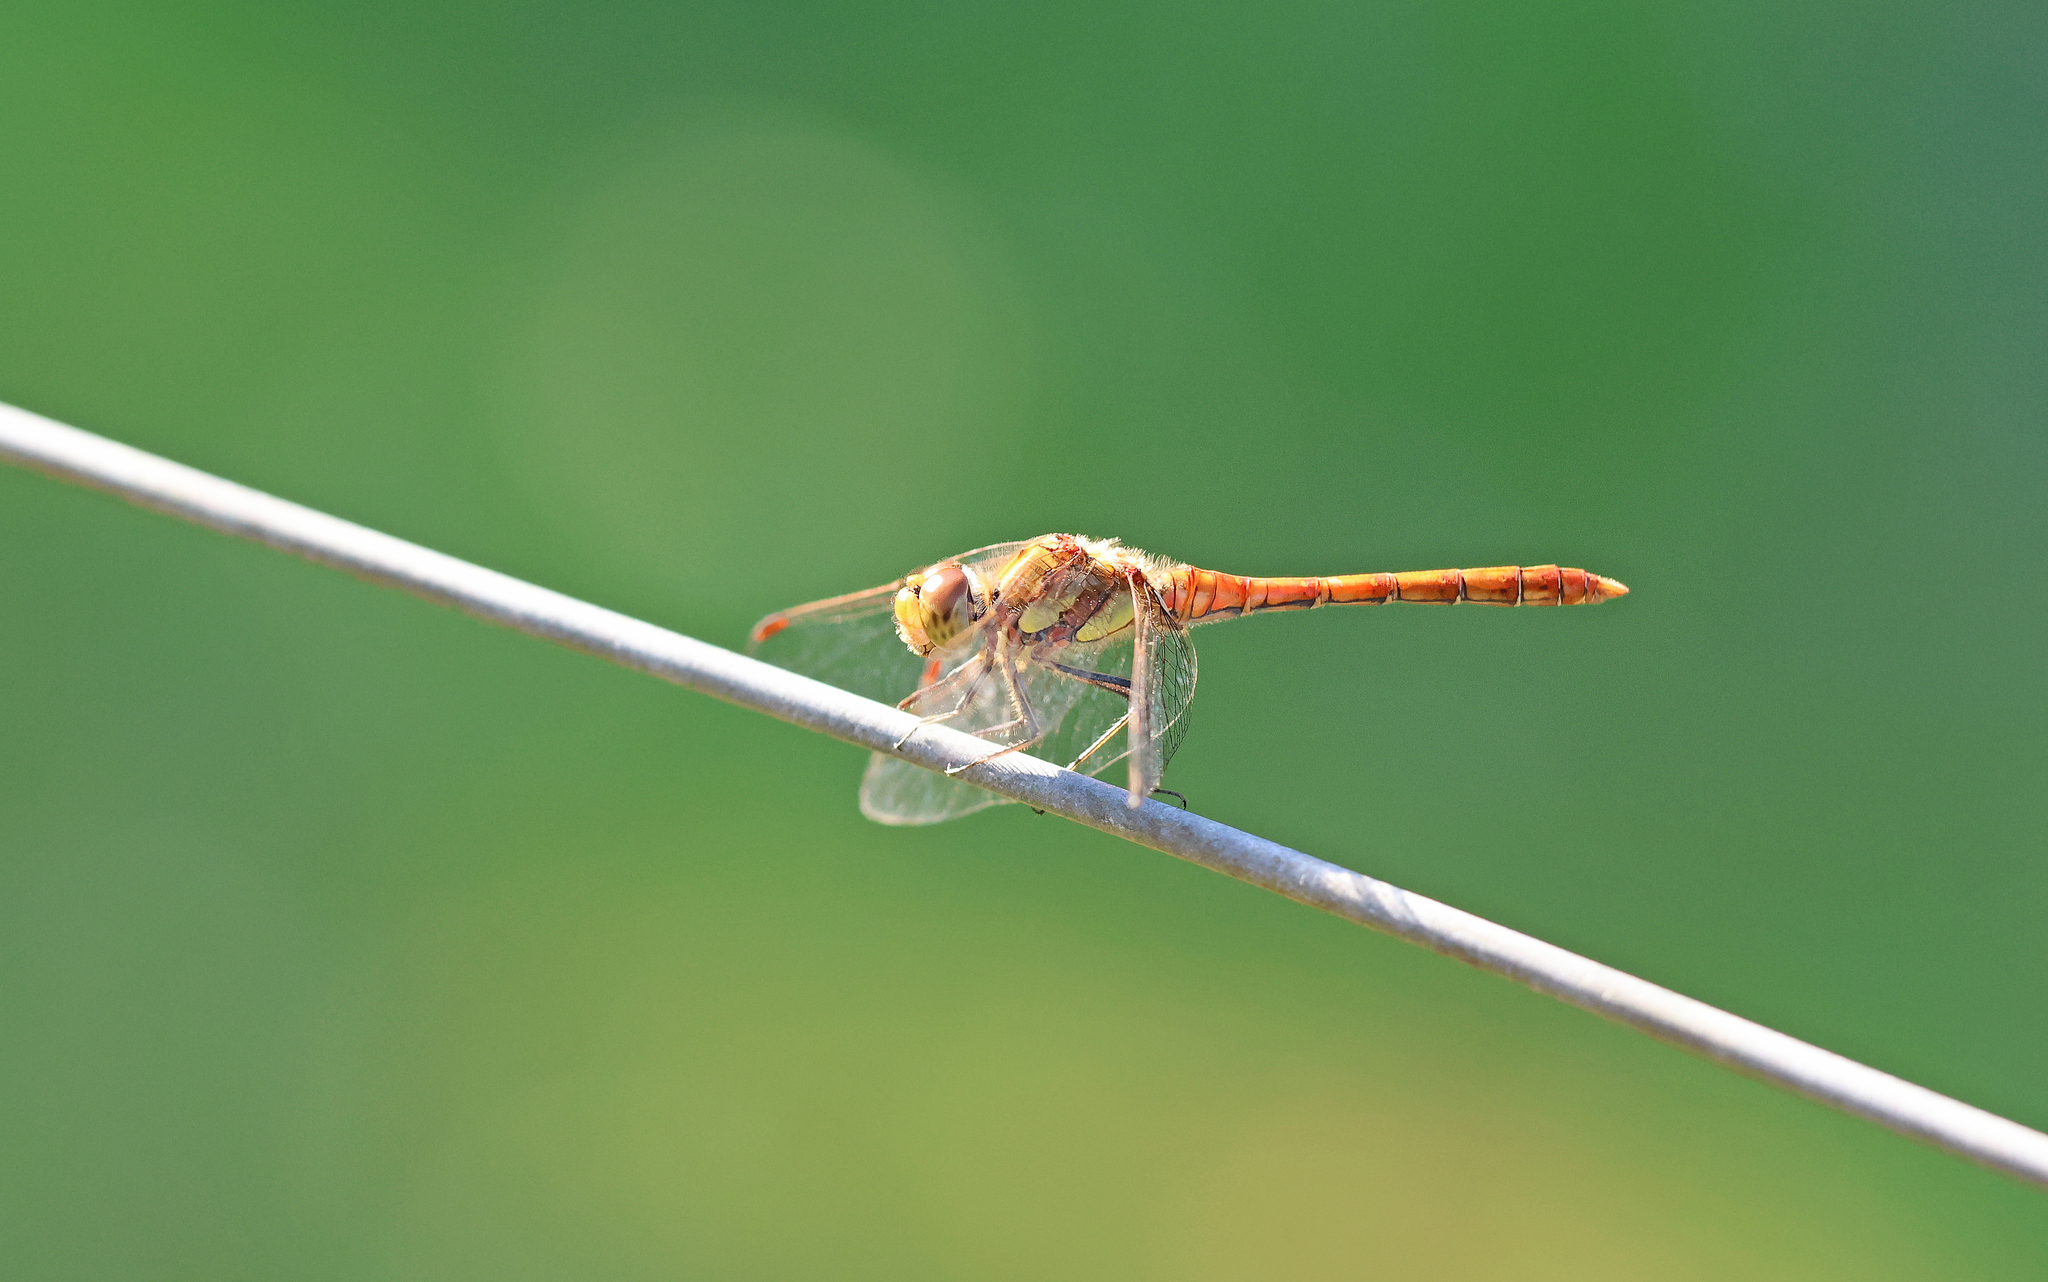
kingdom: Animalia
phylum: Arthropoda
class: Insecta
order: Odonata
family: Libellulidae
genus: Sympetrum
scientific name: Sympetrum striolatum
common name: Common darter
